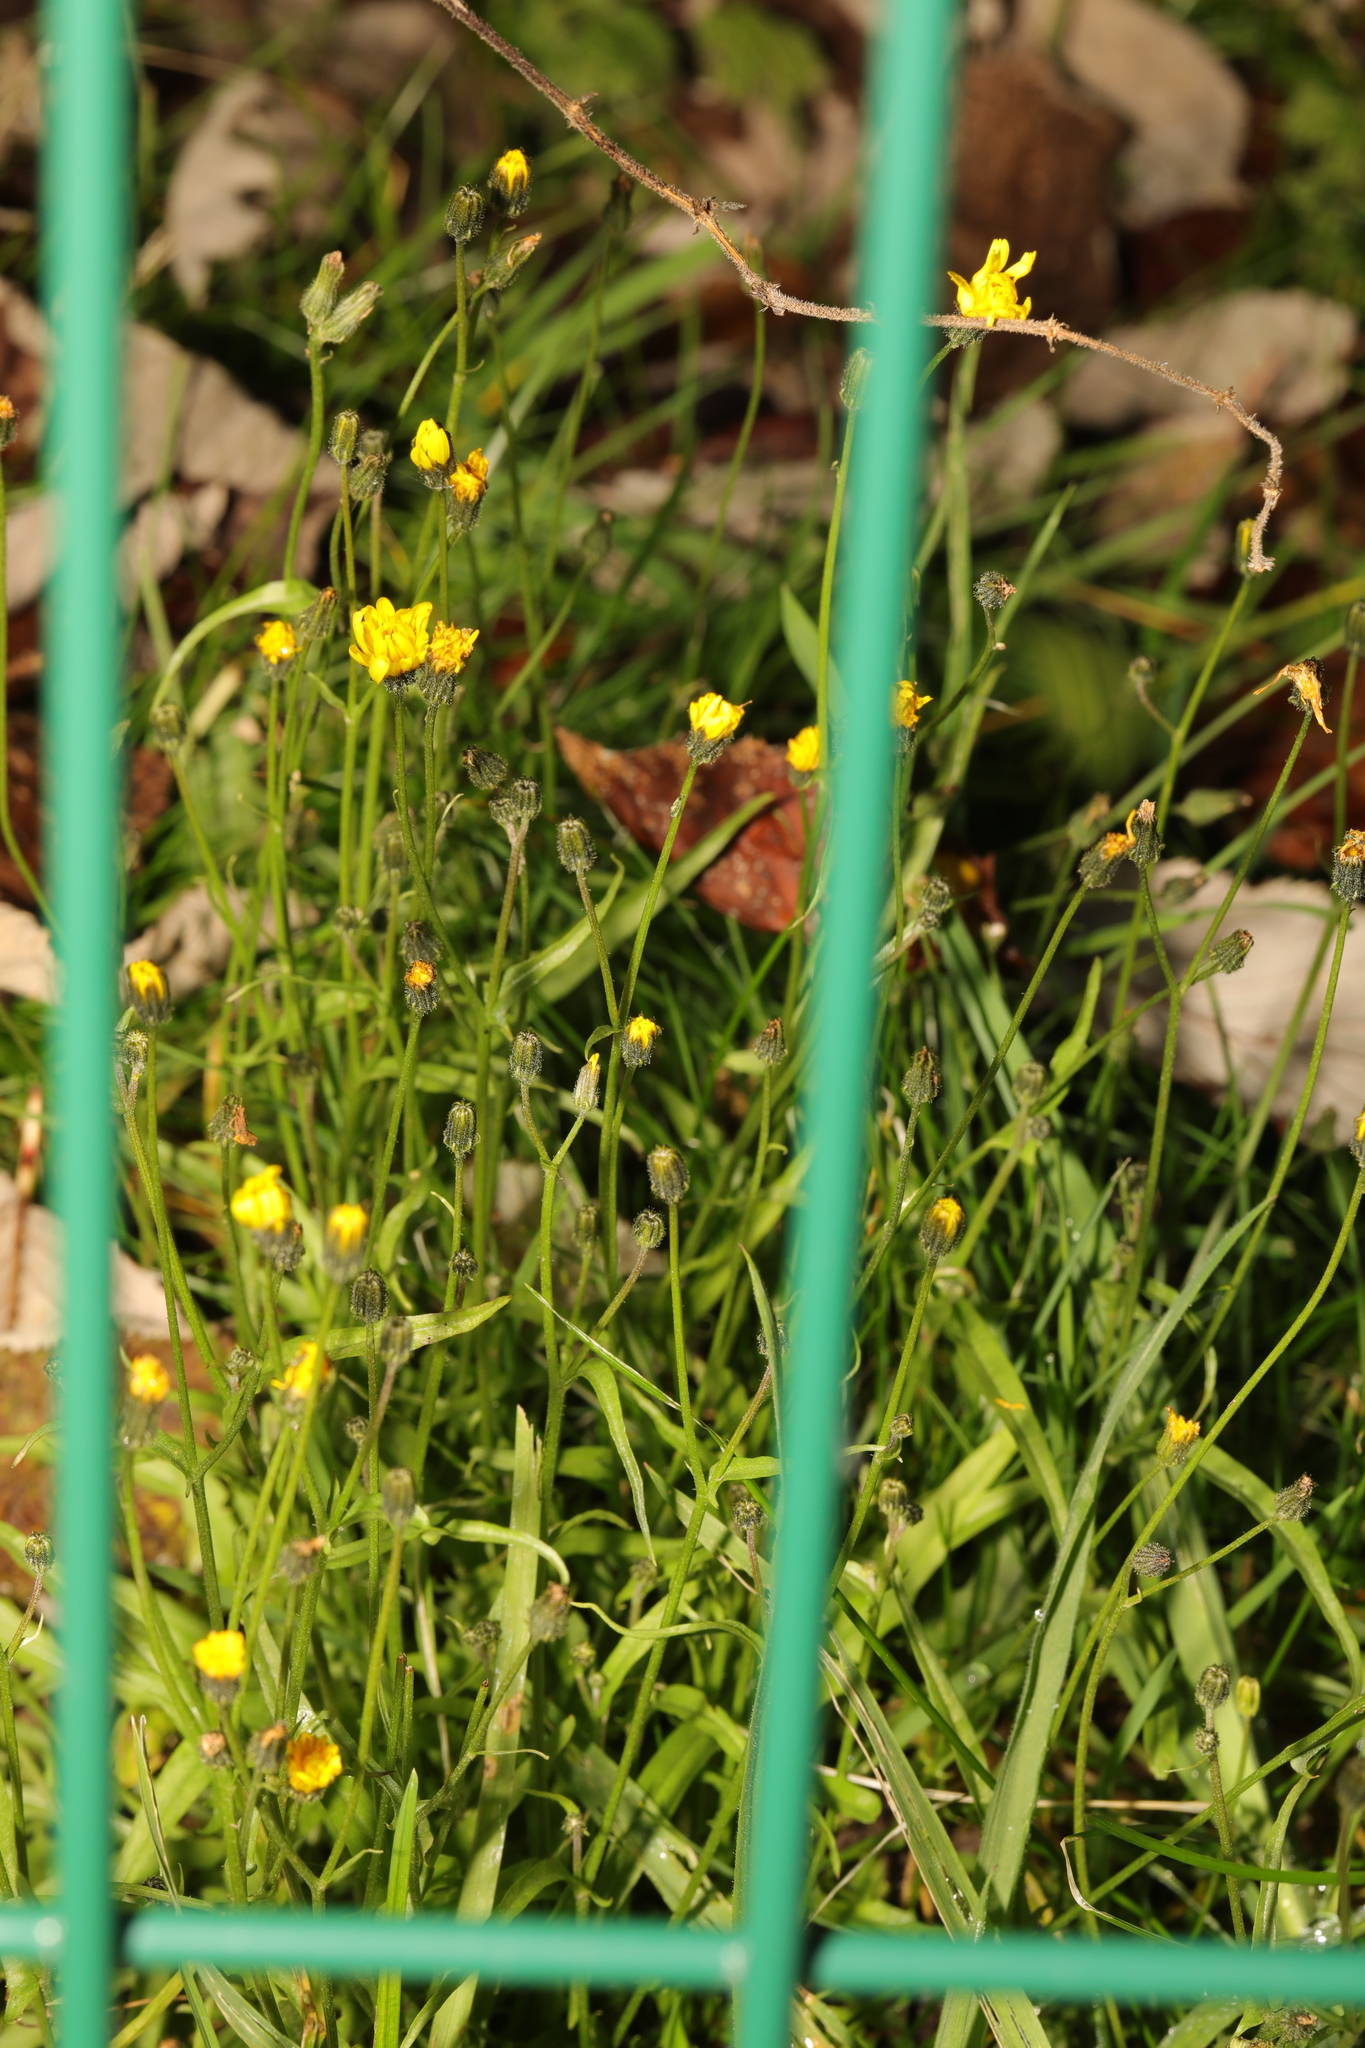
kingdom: Plantae
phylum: Tracheophyta
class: Magnoliopsida
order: Asterales
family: Asteraceae
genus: Crepis
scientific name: Crepis capillaris
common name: Smooth hawksbeard
